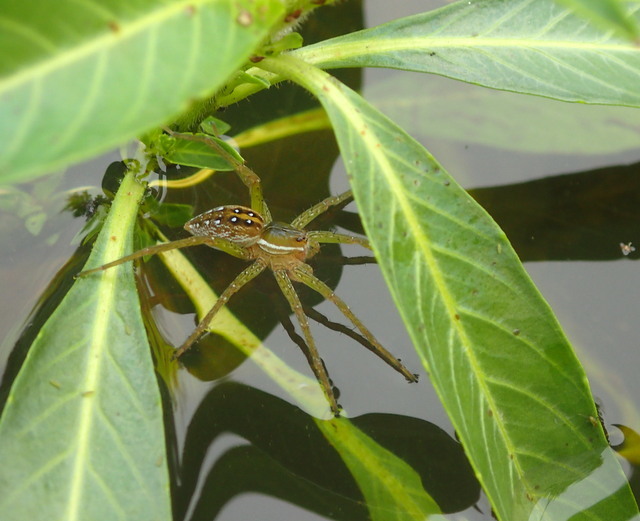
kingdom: Animalia
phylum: Arthropoda
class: Arachnida
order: Araneae
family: Pisauridae
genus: Dolomedes
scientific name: Dolomedes triton
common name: Six-spotted fishing spider
